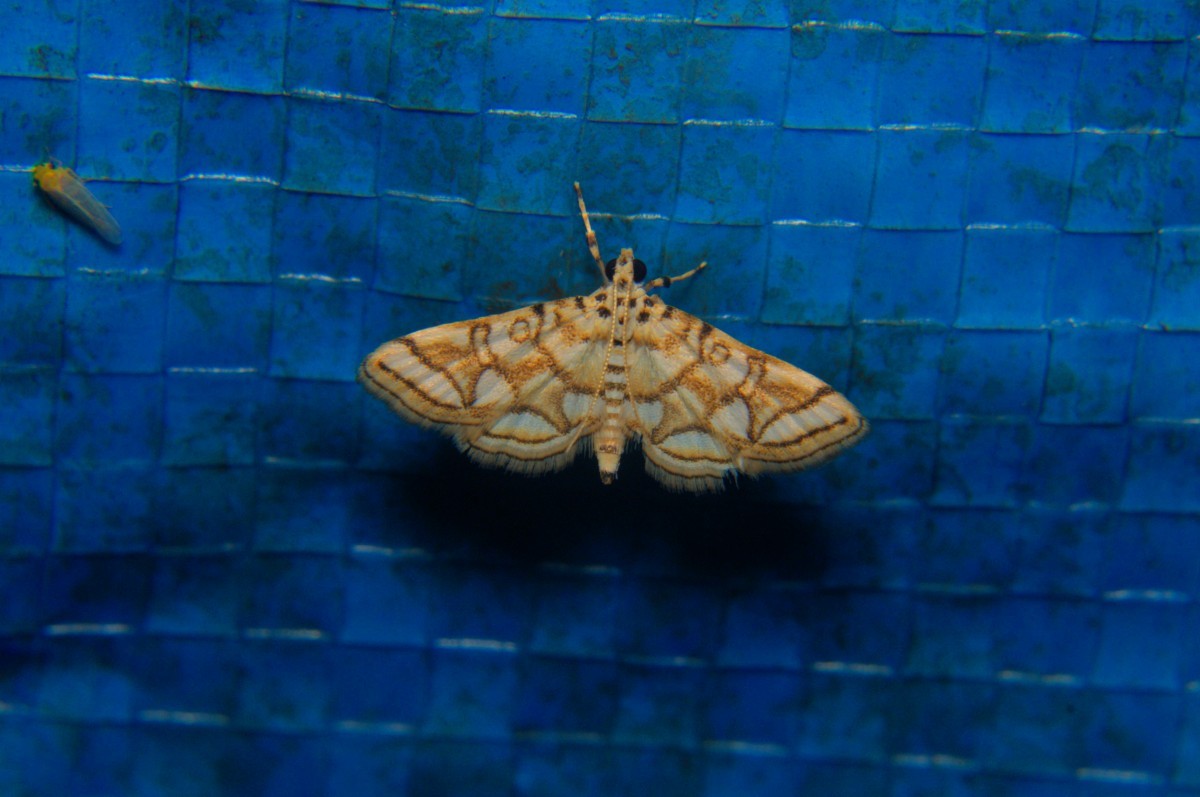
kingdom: Animalia
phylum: Arthropoda
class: Insecta
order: Lepidoptera
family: Crambidae
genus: Elophila
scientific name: Elophila
